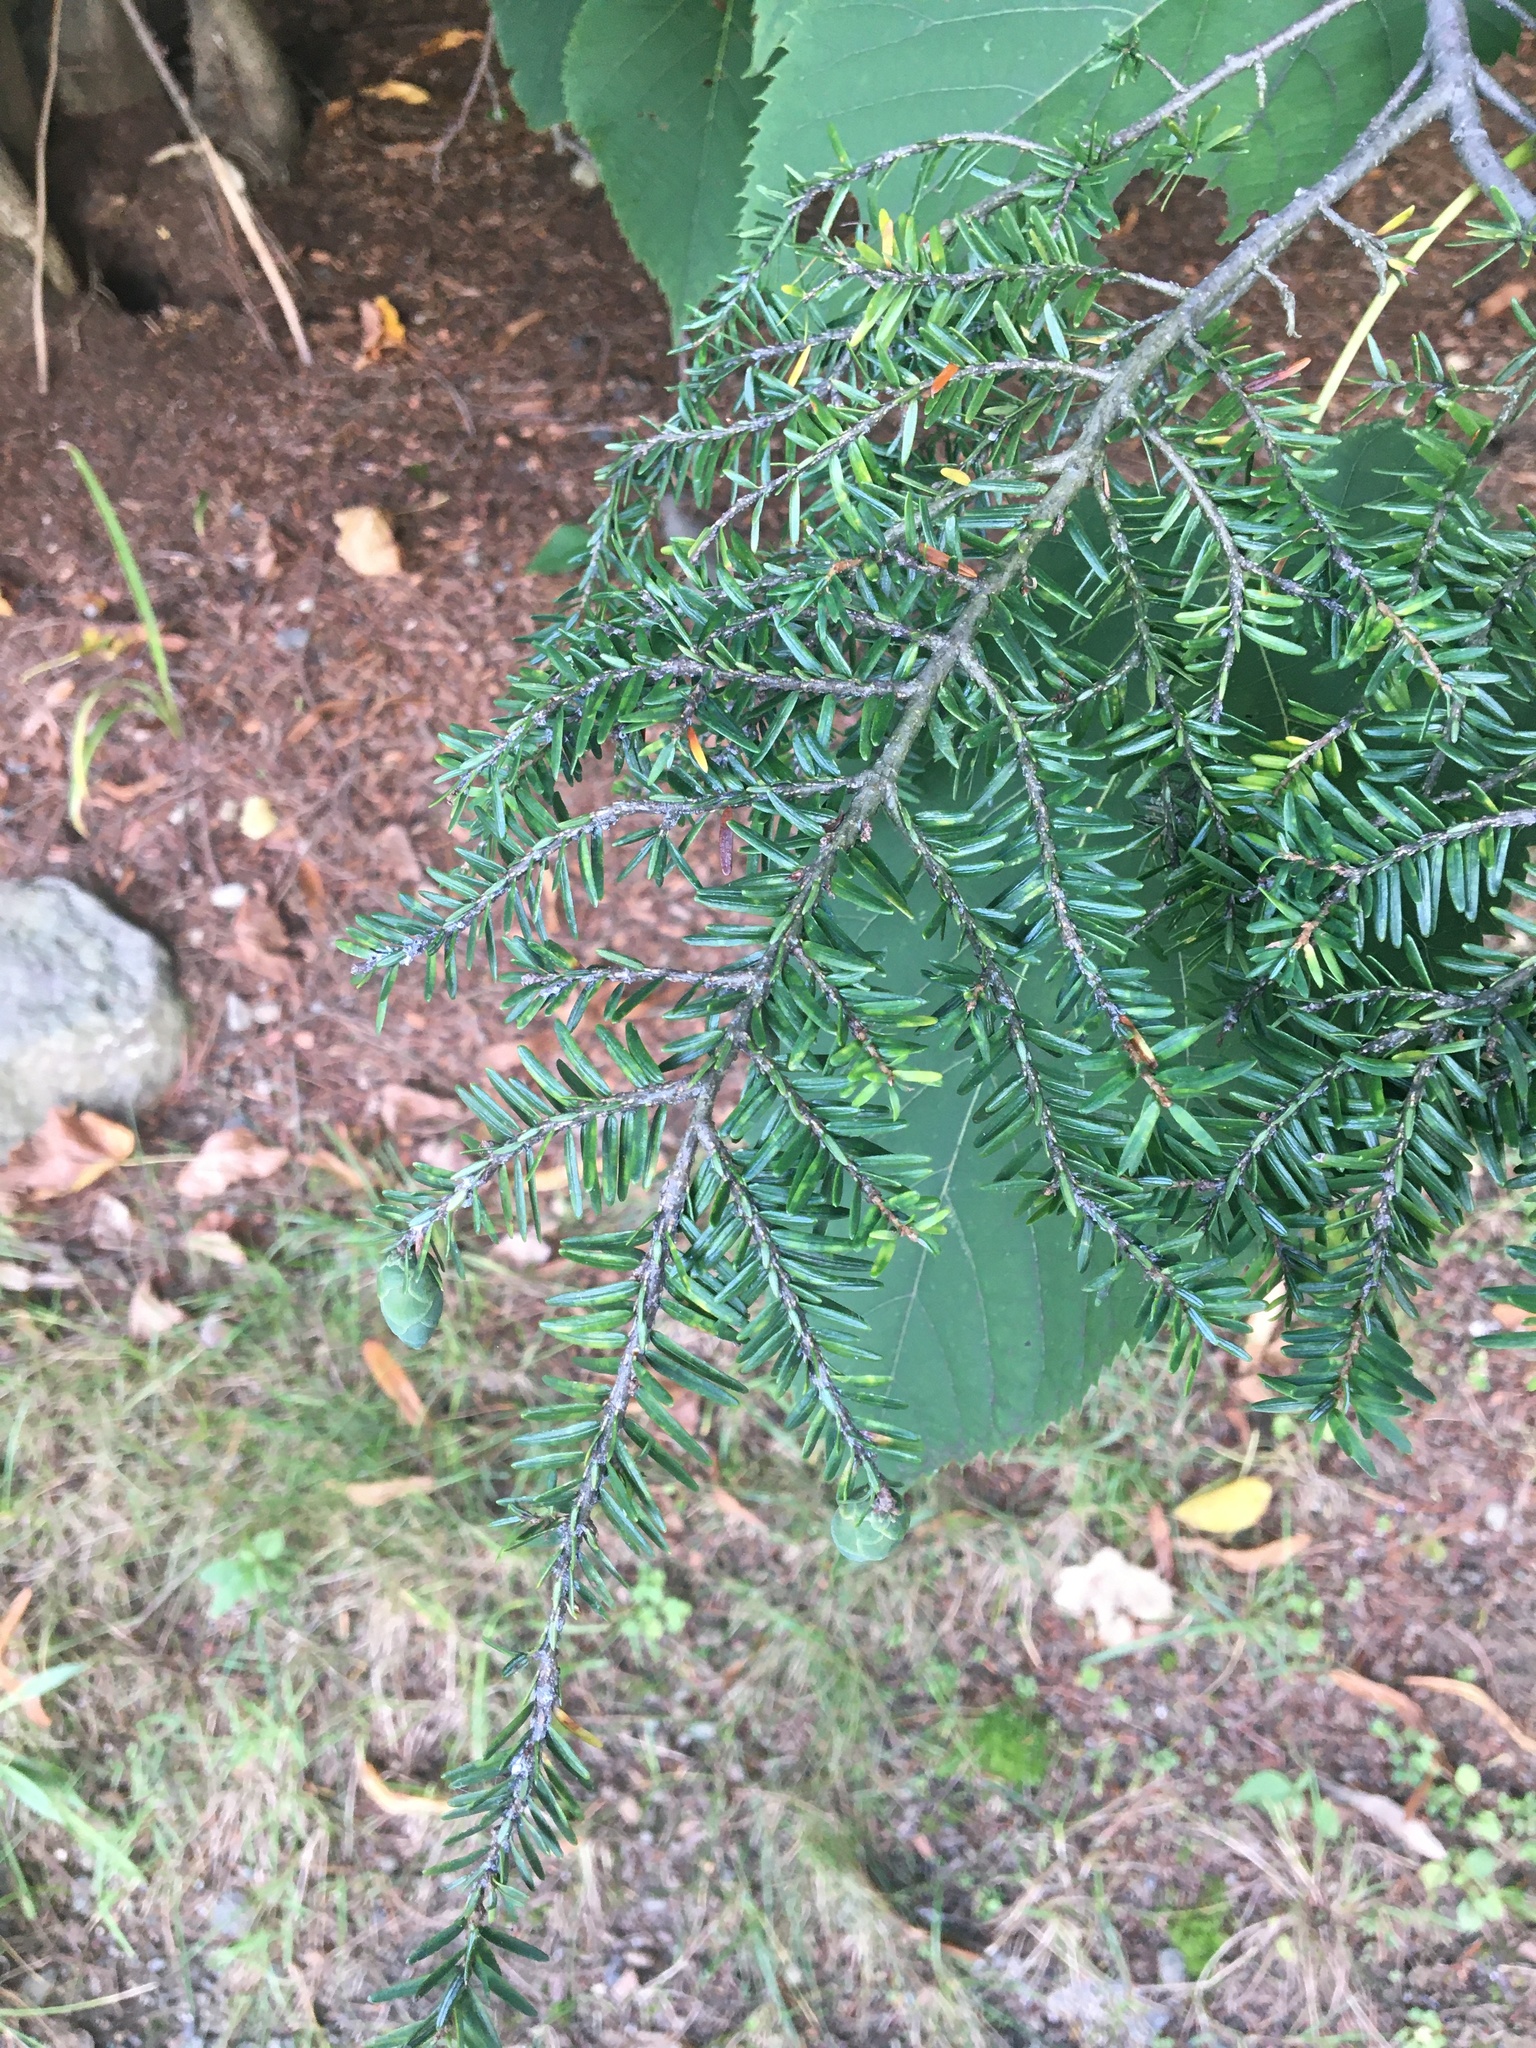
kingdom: Plantae
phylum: Tracheophyta
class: Pinopsida
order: Pinales
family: Pinaceae
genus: Tsuga
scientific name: Tsuga canadensis
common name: Eastern hemlock
